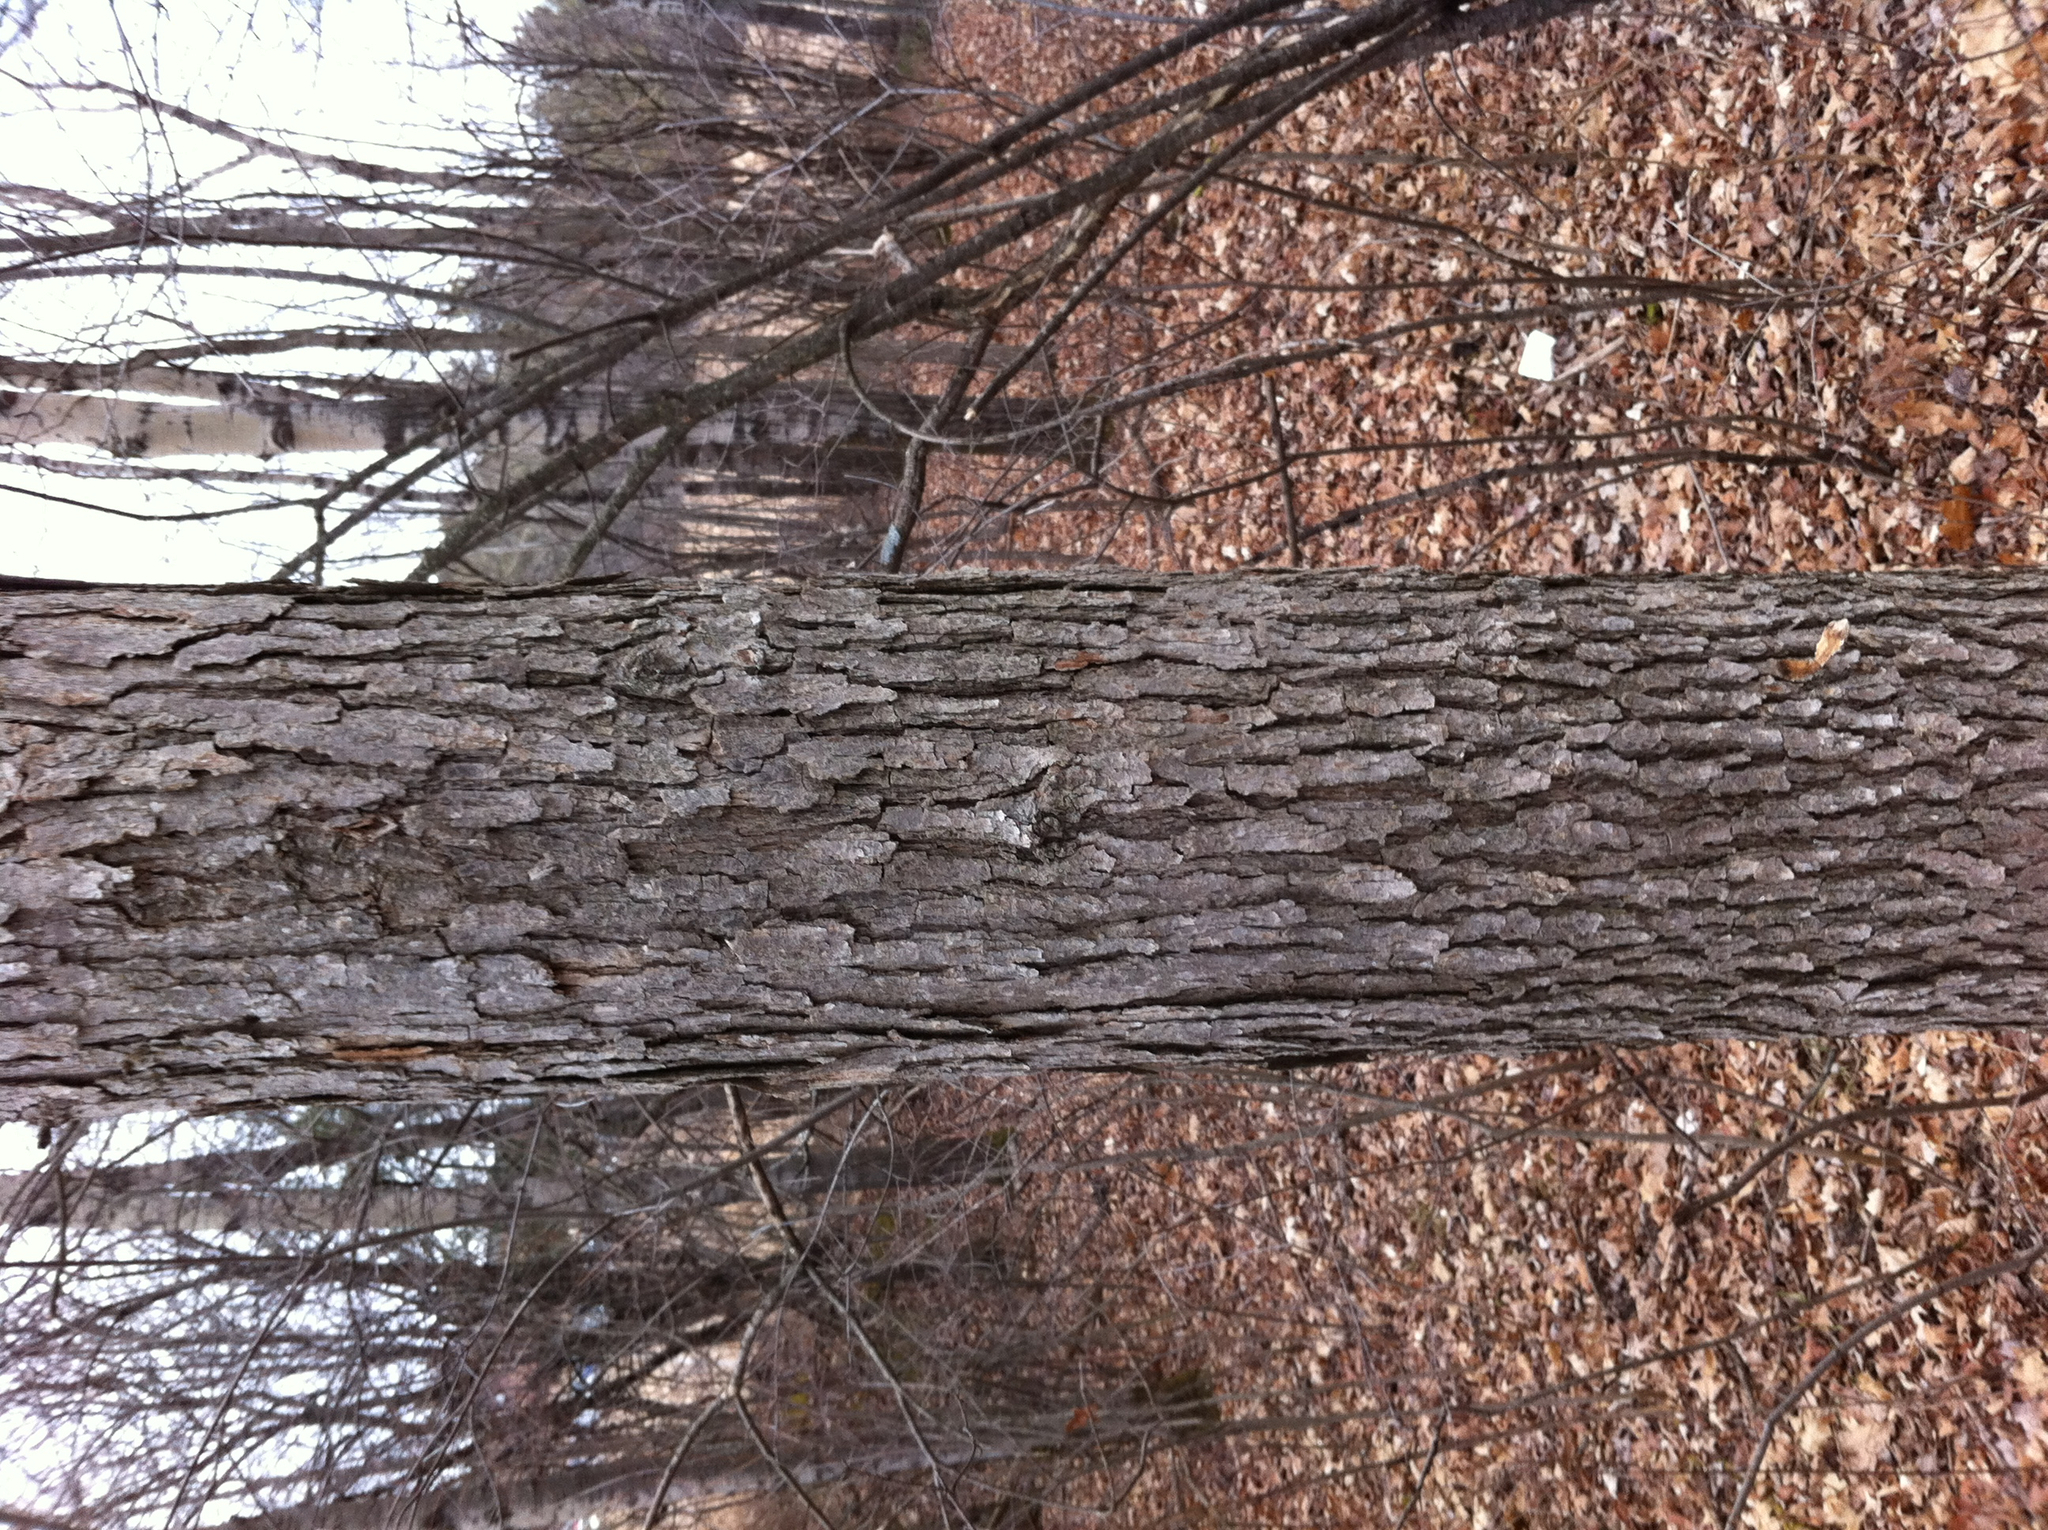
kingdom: Plantae
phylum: Tracheophyta
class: Magnoliopsida
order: Fagales
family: Fagaceae
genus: Quercus
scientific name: Quercus alba
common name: White oak
